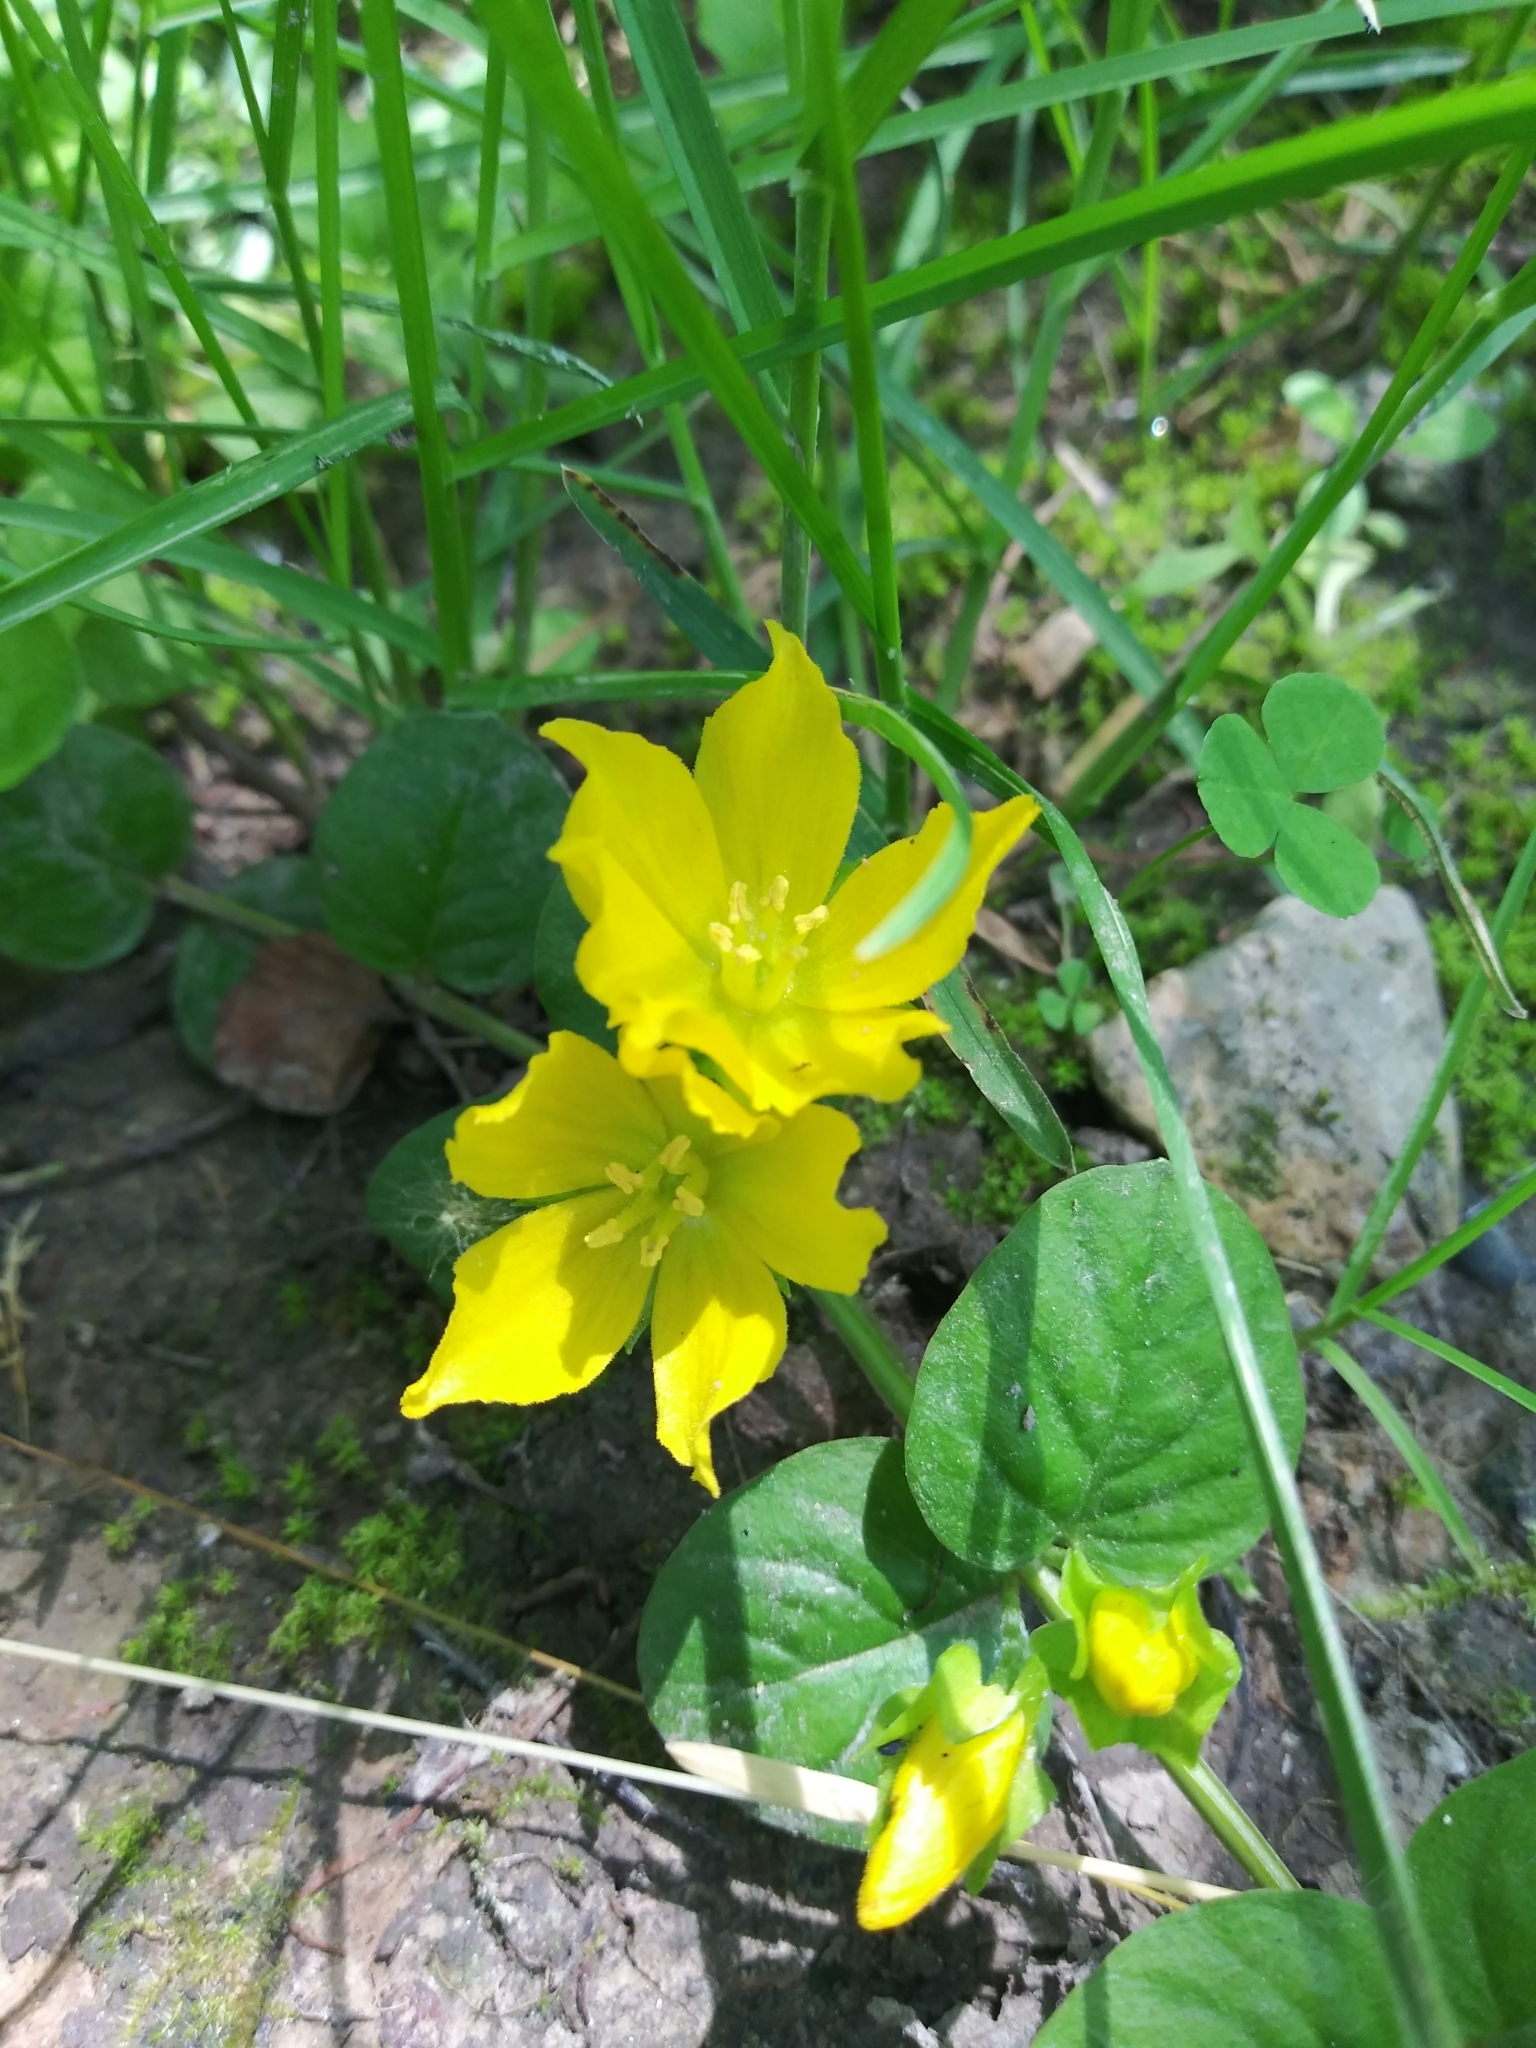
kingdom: Plantae
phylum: Tracheophyta
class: Magnoliopsida
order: Ericales
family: Primulaceae
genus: Lysimachia
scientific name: Lysimachia nummularia
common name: Moneywort
